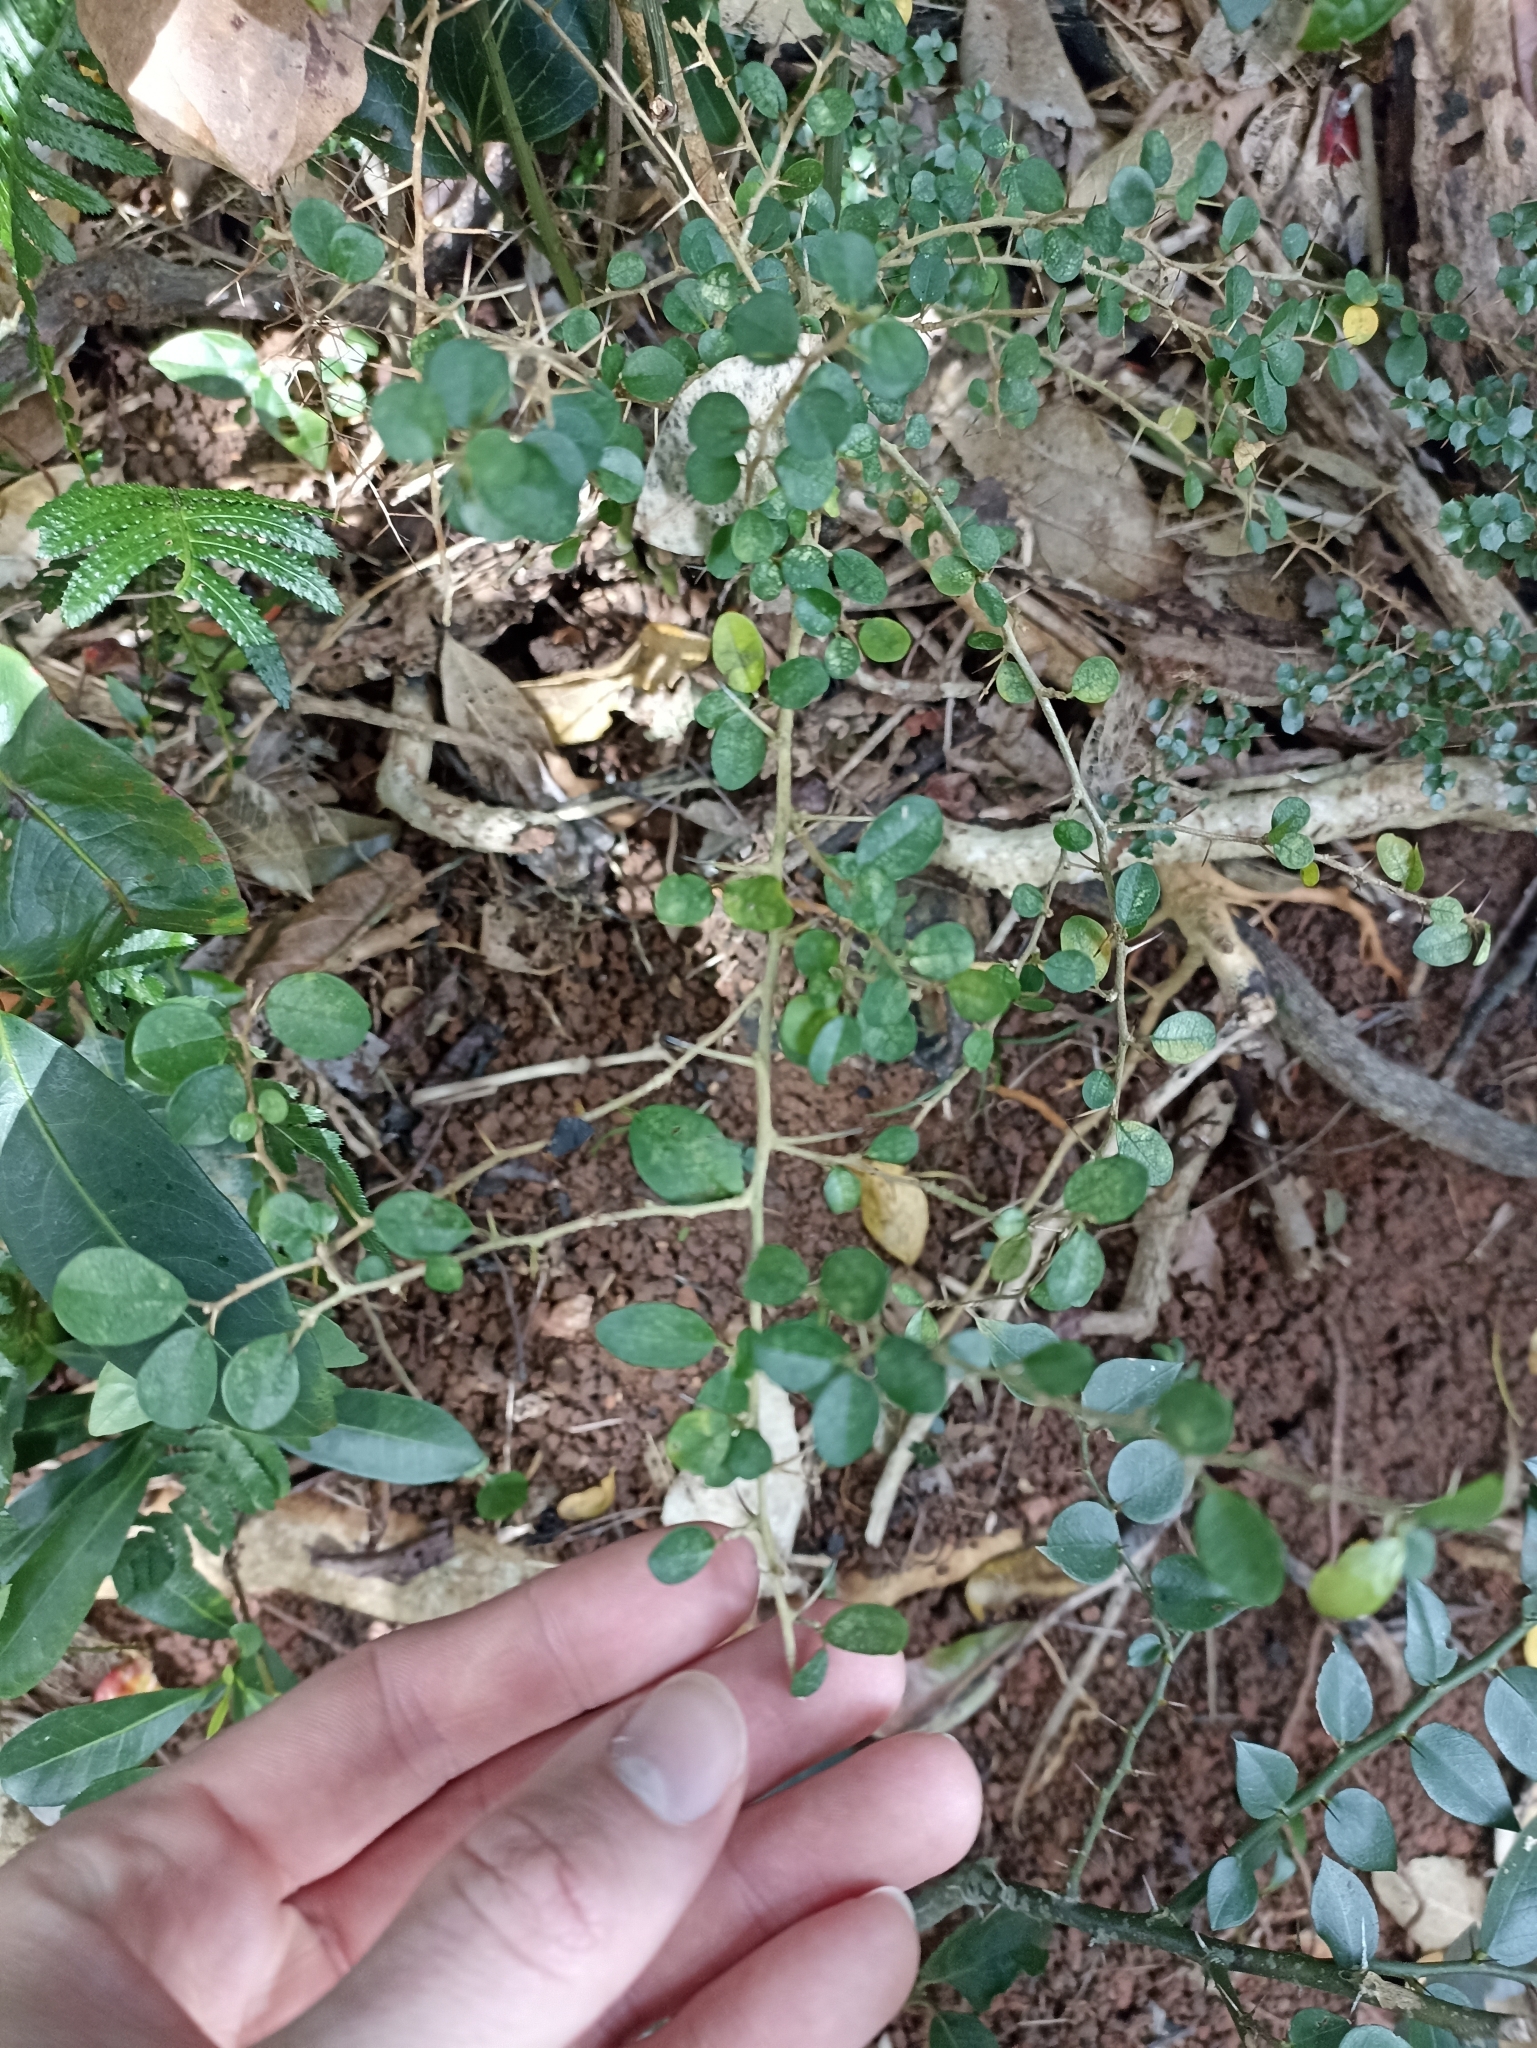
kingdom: Plantae
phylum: Tracheophyta
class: Magnoliopsida
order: Rosales
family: Moraceae
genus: Maclura
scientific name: Maclura cochinchinensis
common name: Cockspurthorn
